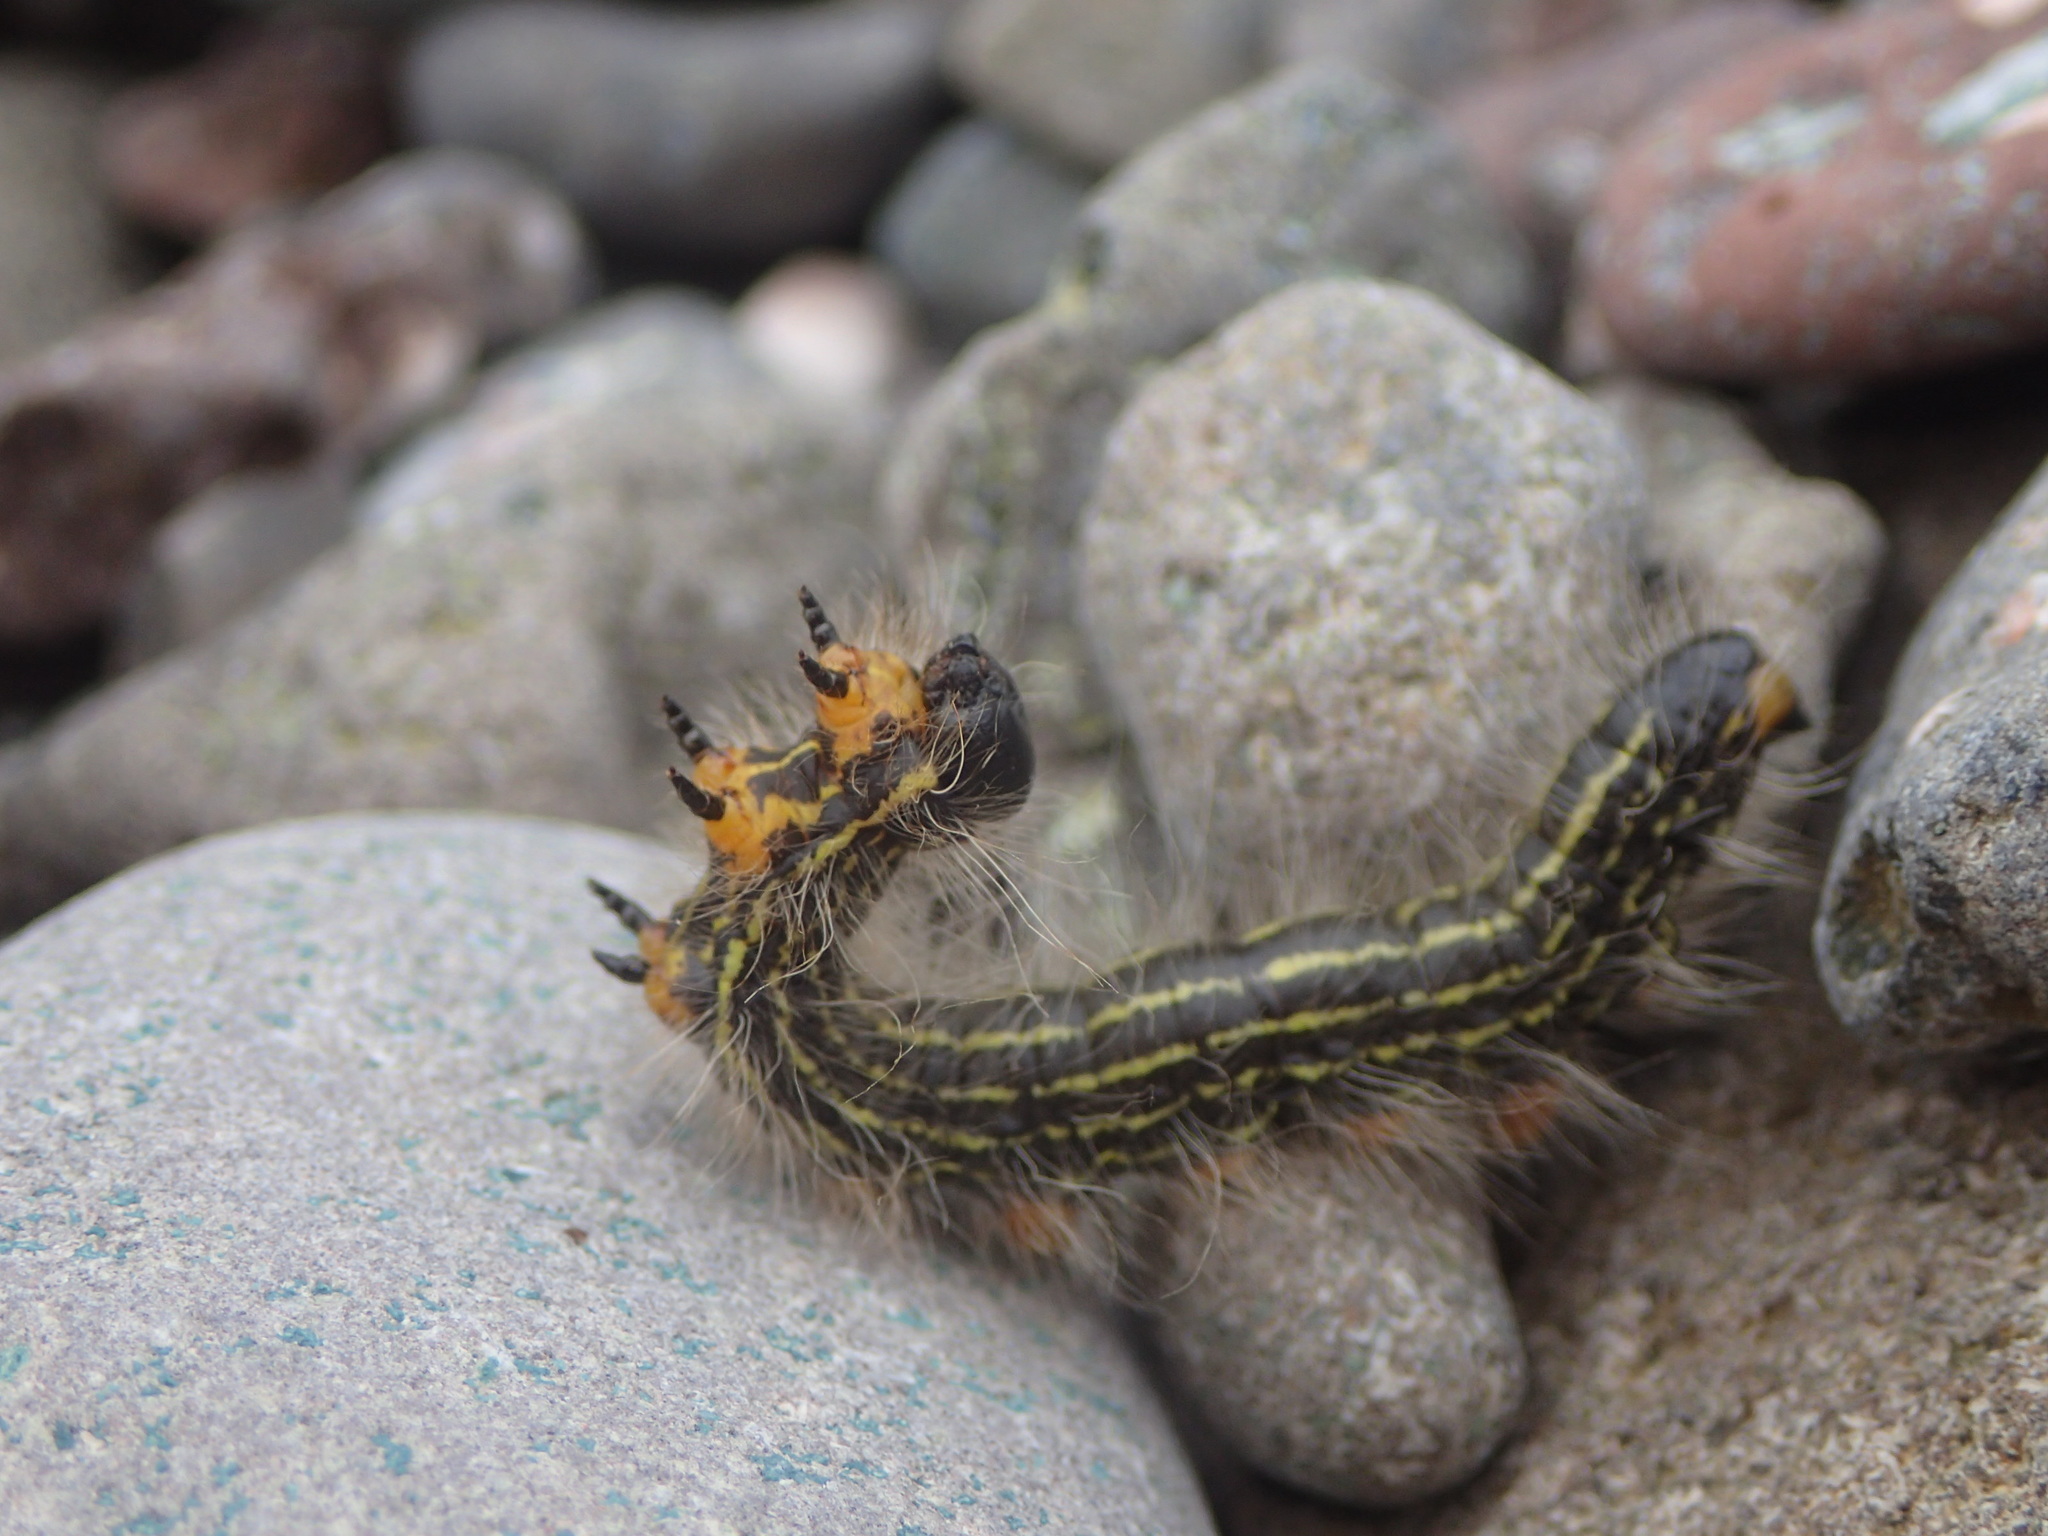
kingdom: Animalia
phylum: Arthropoda
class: Insecta
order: Lepidoptera
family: Notodontidae
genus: Datana
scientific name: Datana ministra
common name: Yellow-necked caterpillar moth
